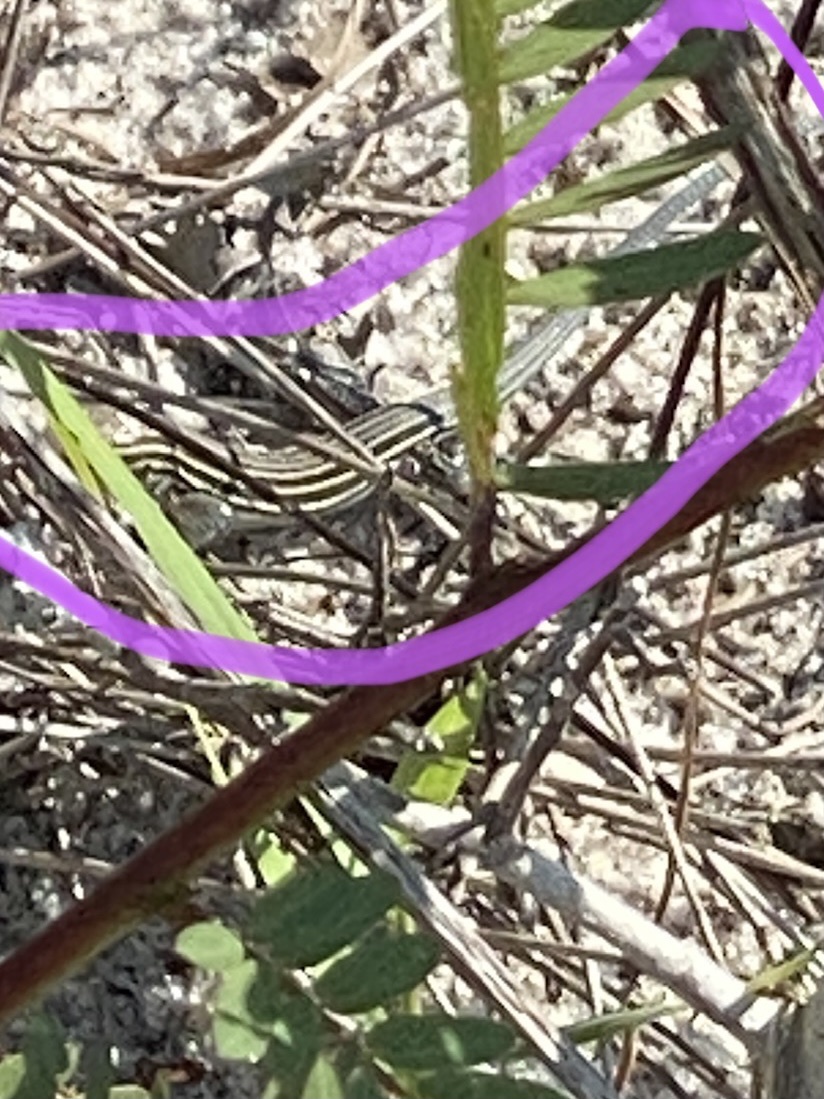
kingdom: Animalia
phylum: Chordata
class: Squamata
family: Teiidae
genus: Aspidoscelis
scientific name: Aspidoscelis sexlineatus
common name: Six-lined racerunner
